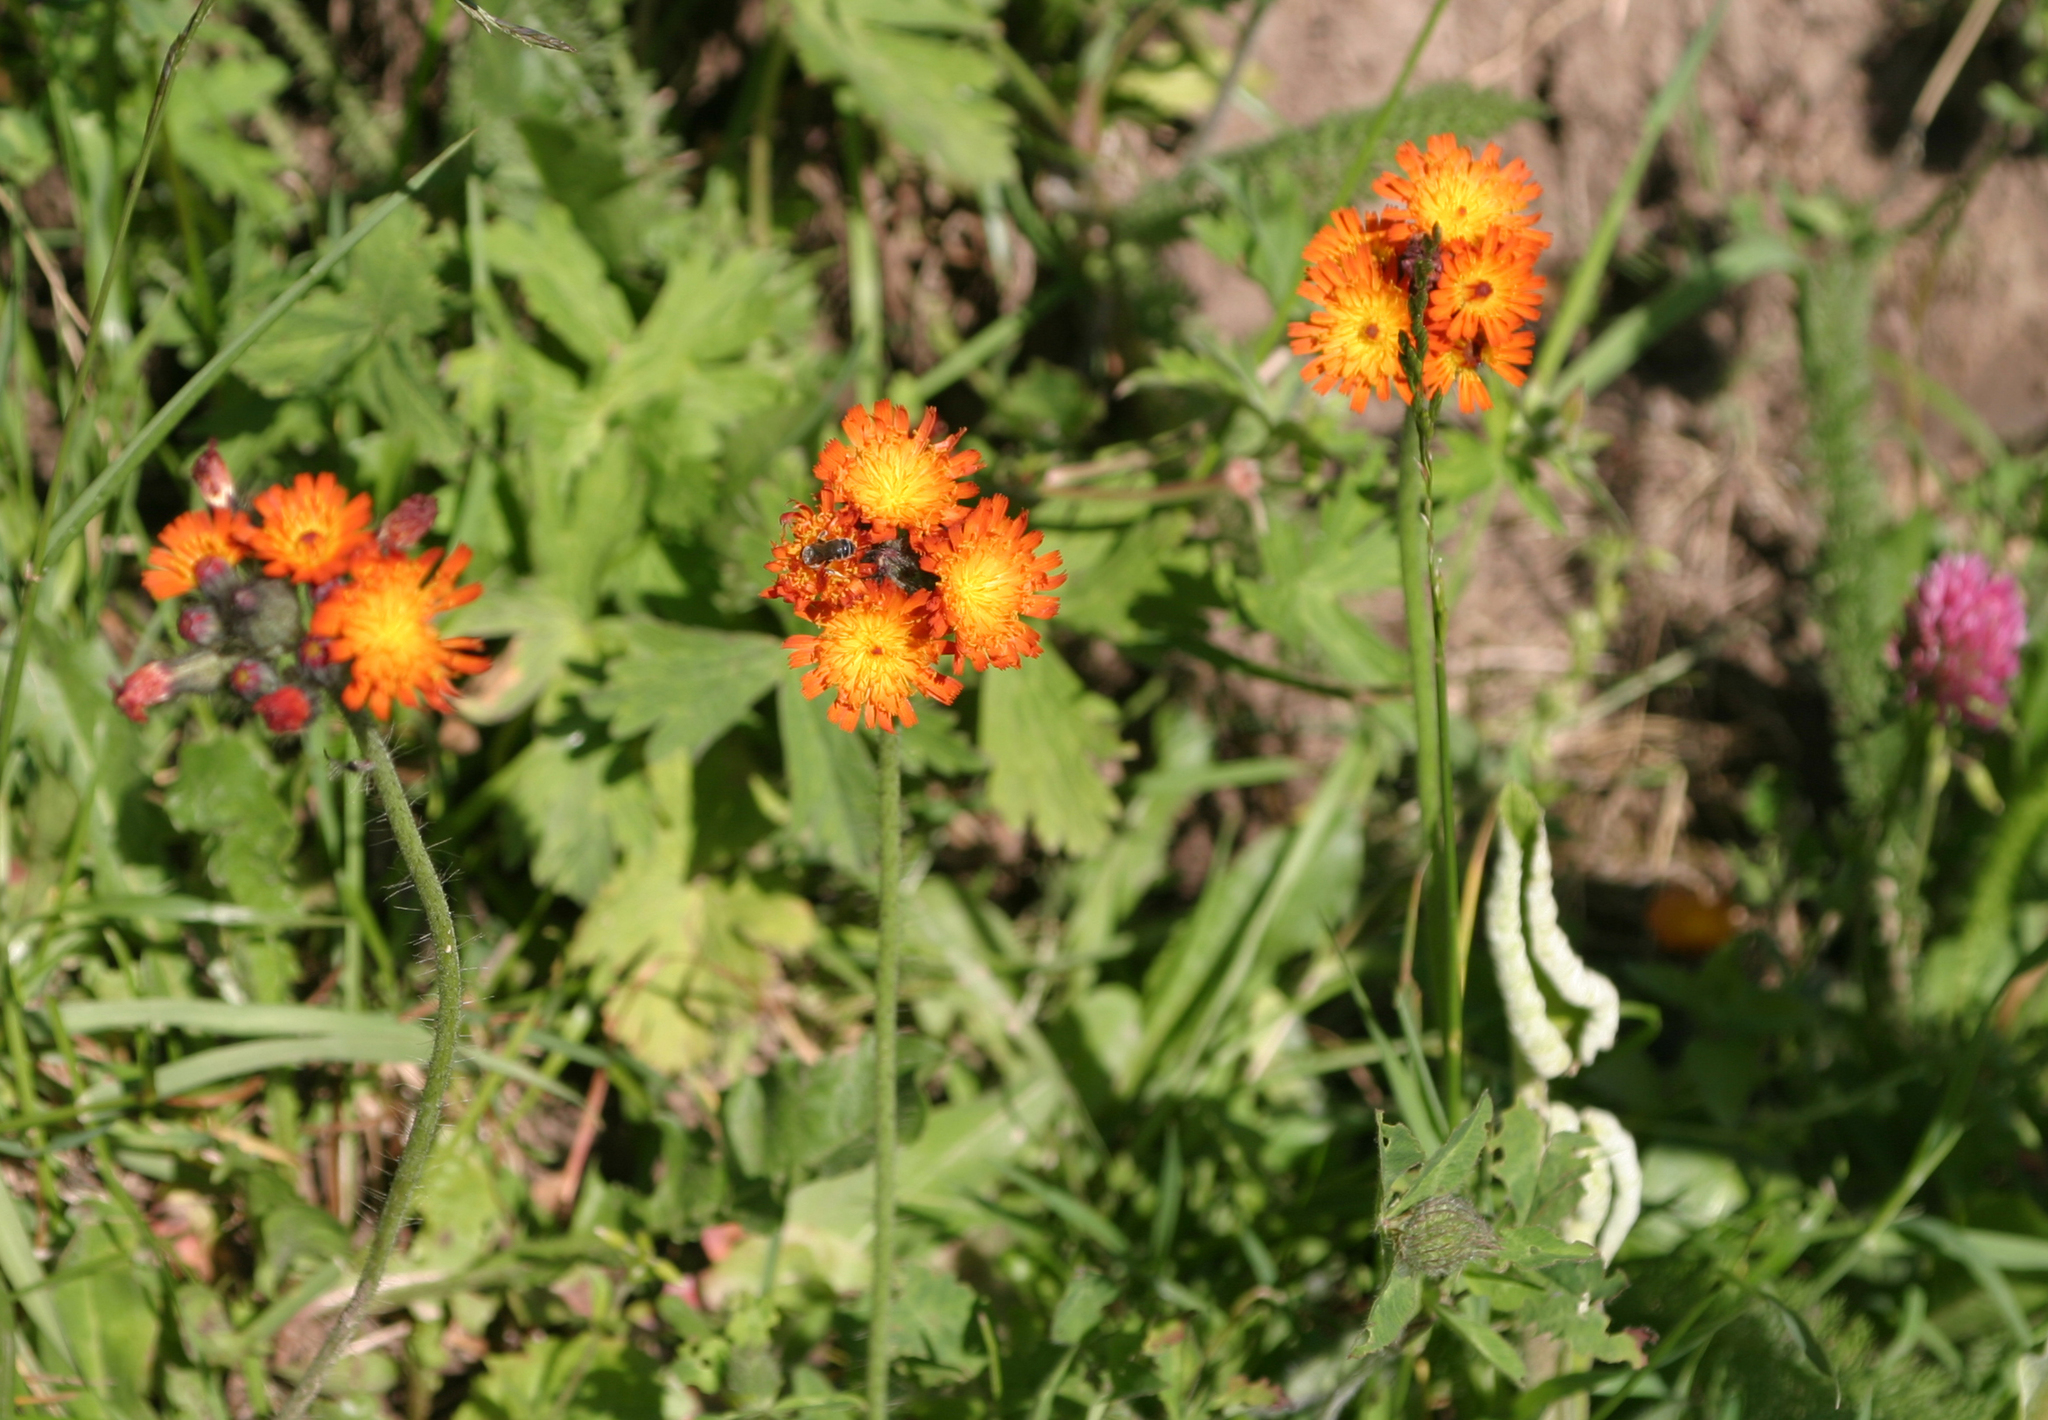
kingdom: Plantae
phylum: Tracheophyta
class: Magnoliopsida
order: Asterales
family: Asteraceae
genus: Pilosella
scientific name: Pilosella aurantiaca
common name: Fox-and-cubs
